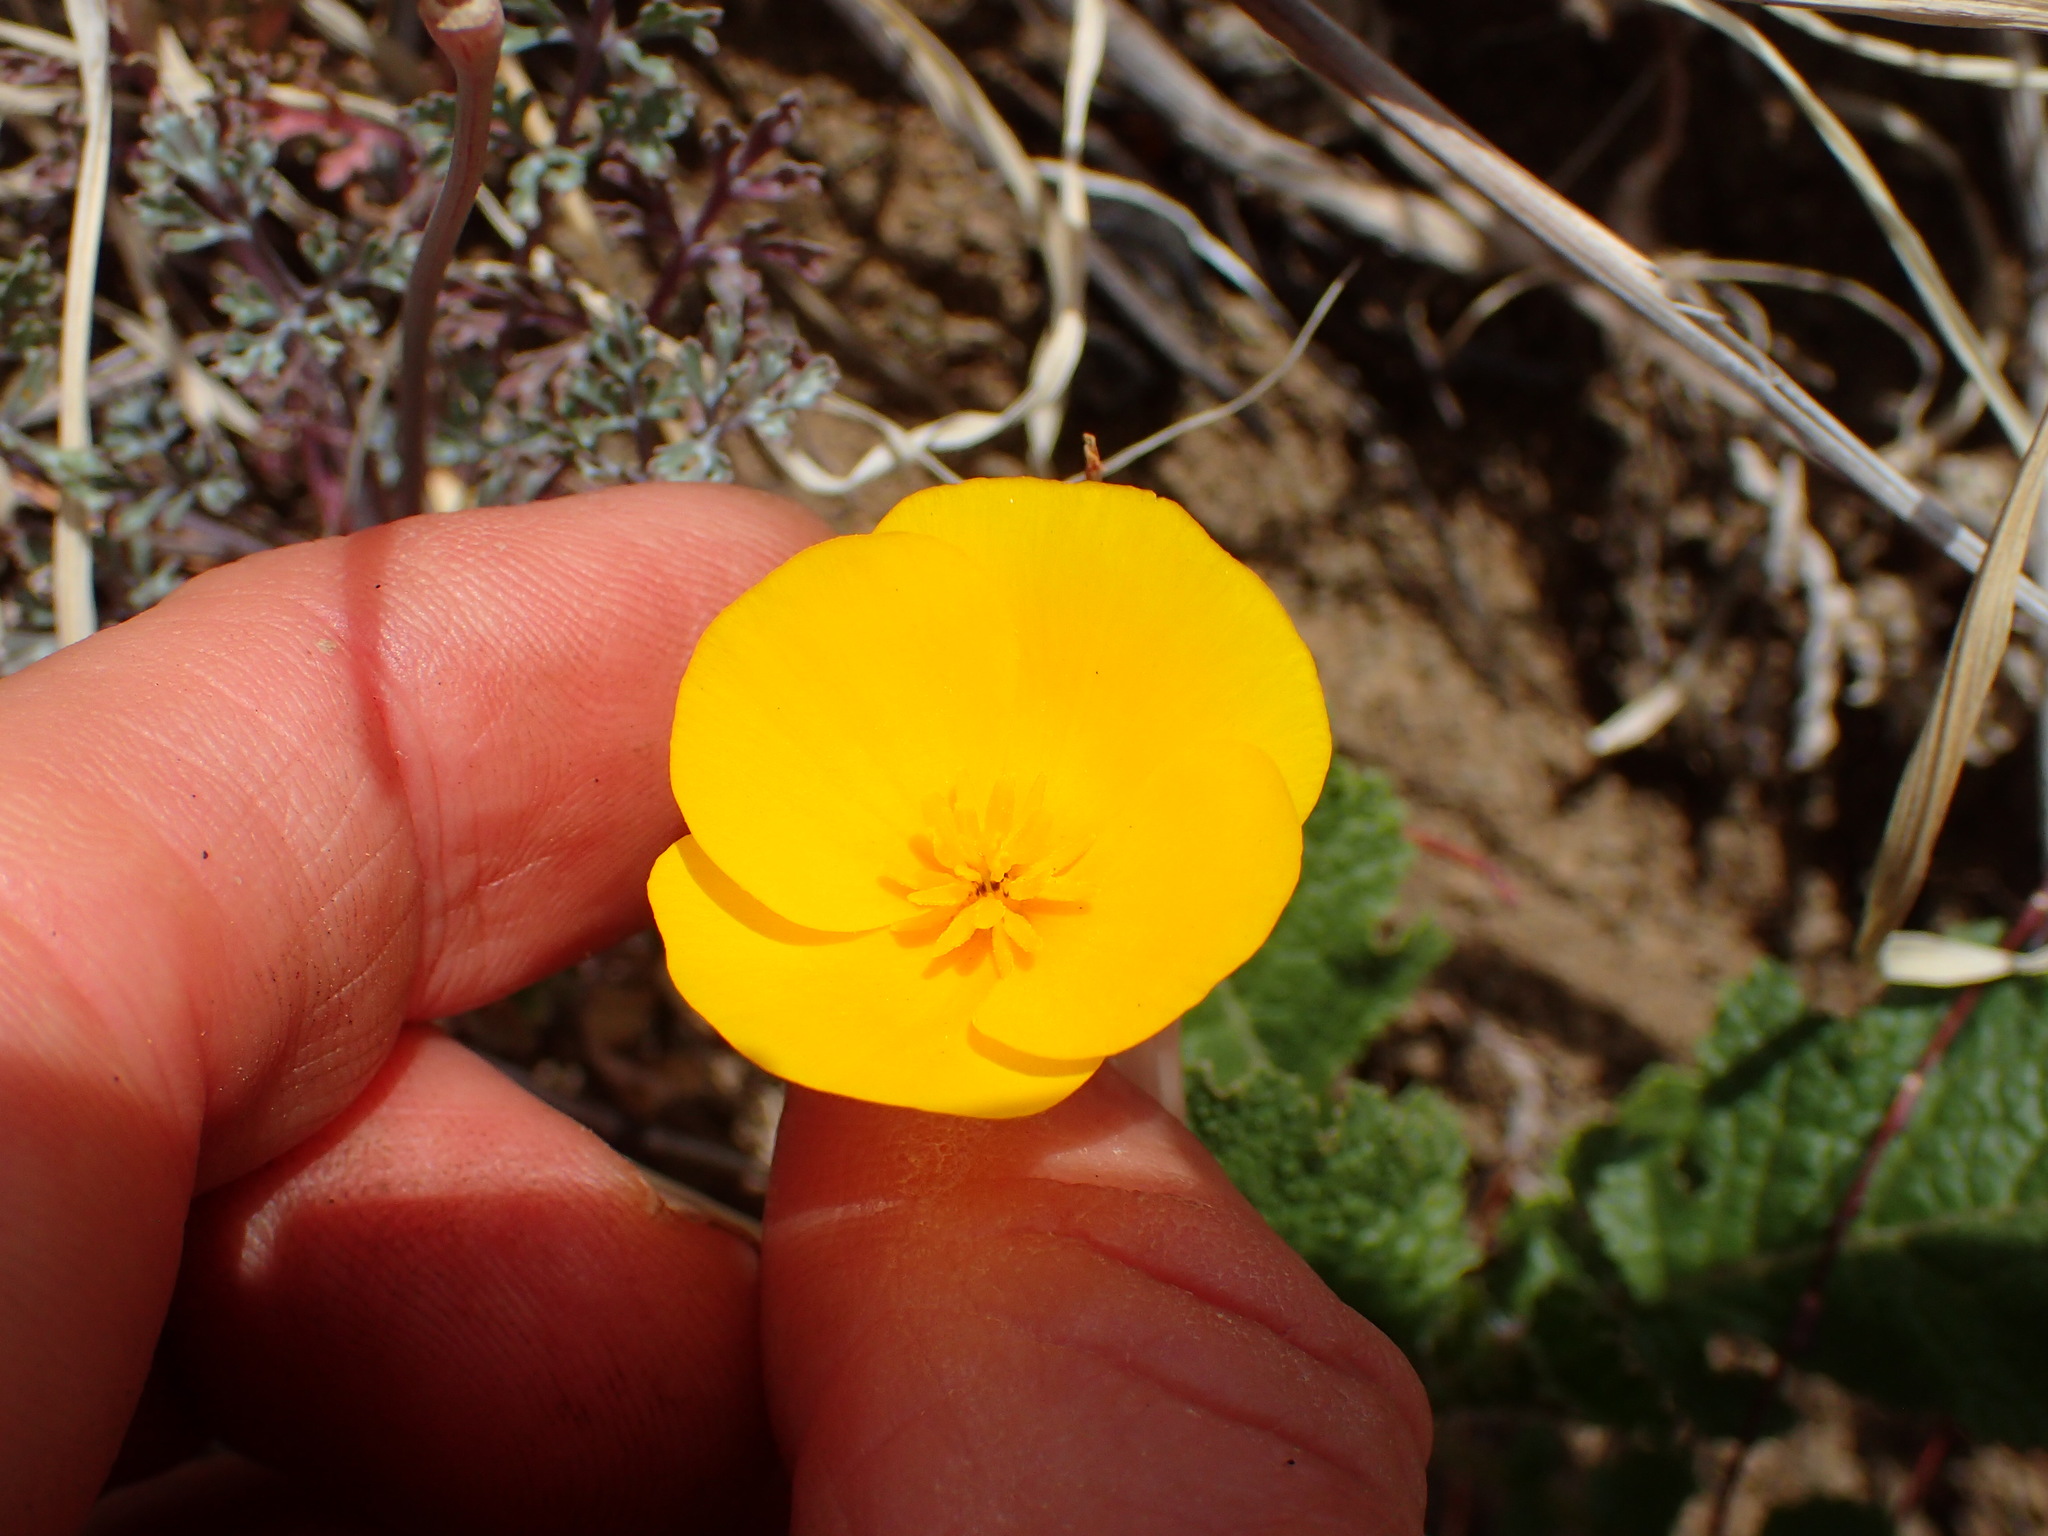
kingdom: Plantae
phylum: Tracheophyta
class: Magnoliopsida
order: Ranunculales
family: Papaveraceae
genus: Eschscholzia
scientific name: Eschscholzia caespitosa
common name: Tufted california-poppy
